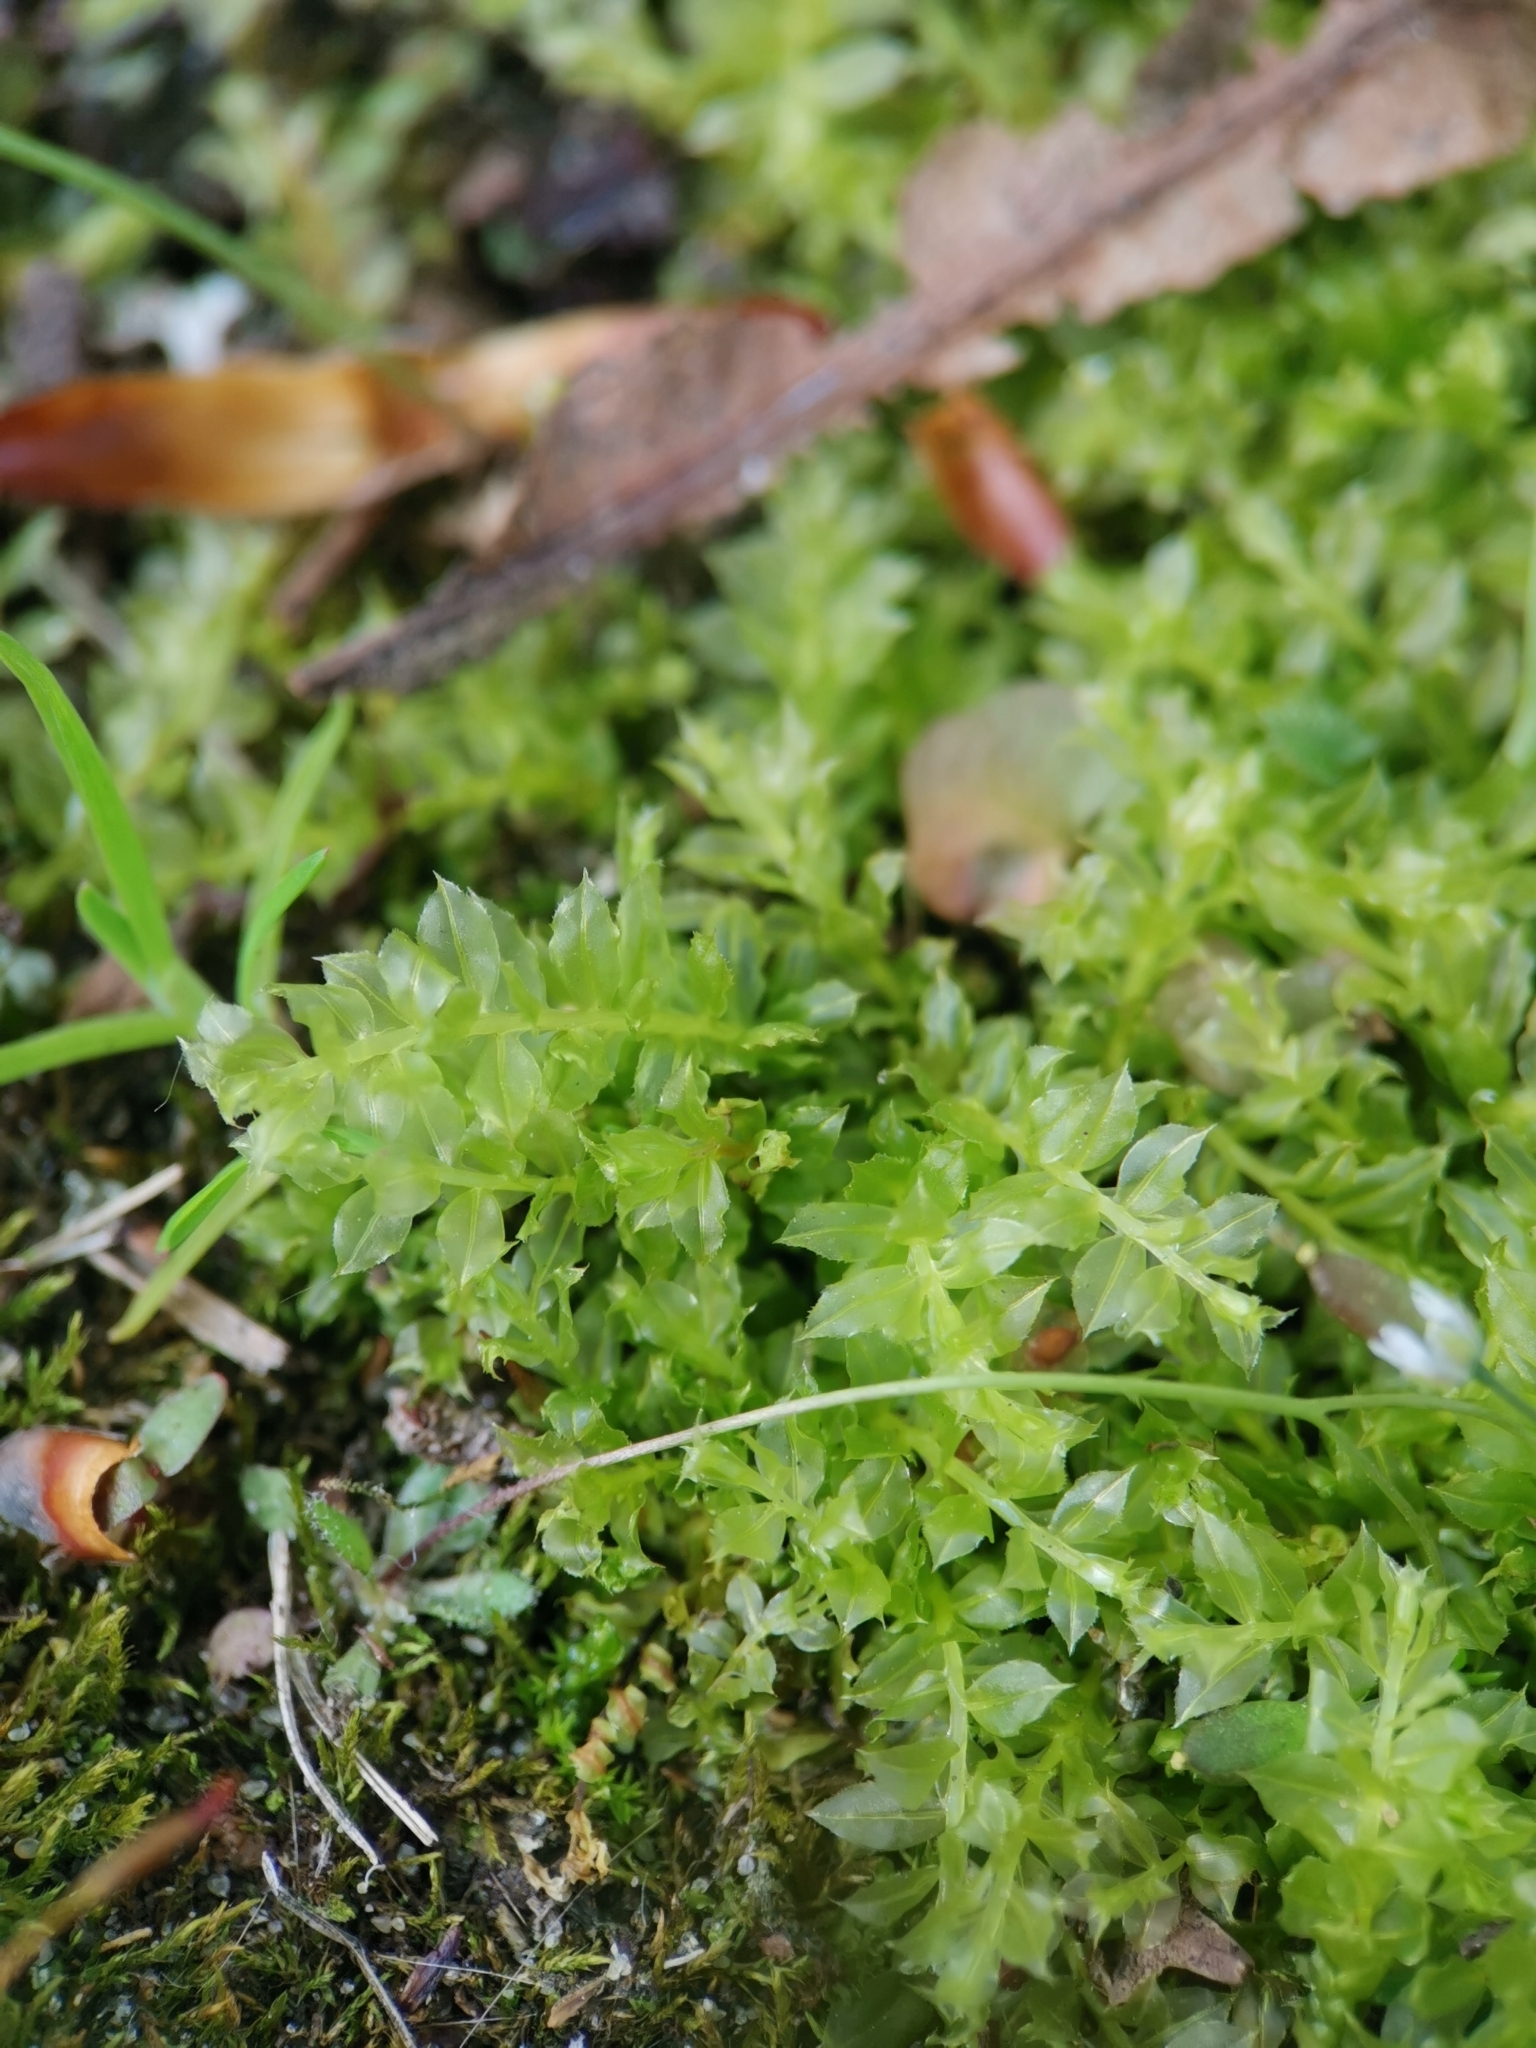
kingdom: Plantae
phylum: Bryophyta
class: Bryopsida
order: Bryales
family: Mniaceae
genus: Plagiomnium
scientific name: Plagiomnium cuspidatum
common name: Woodsy leafy moss
